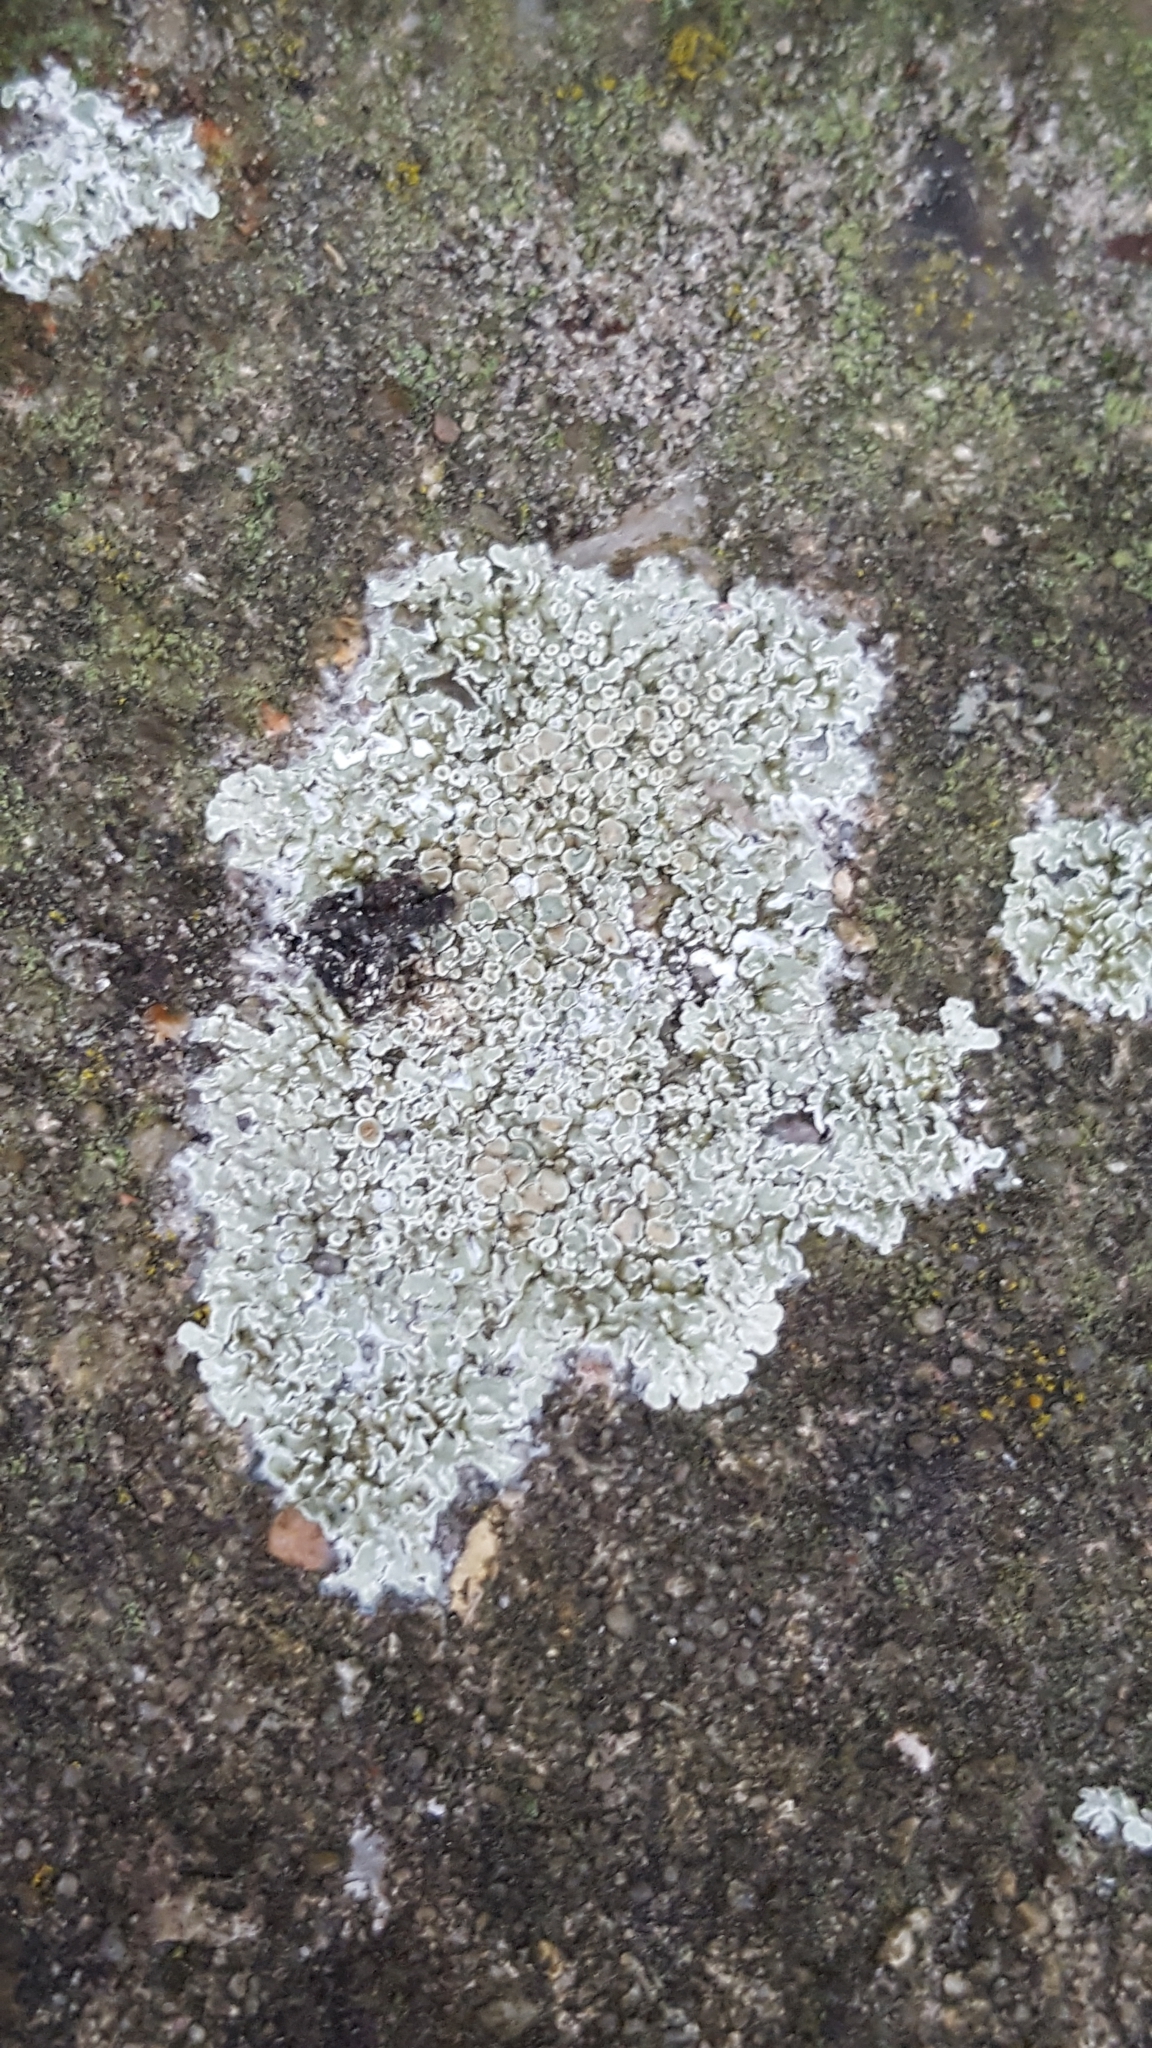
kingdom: Fungi
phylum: Ascomycota
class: Lecanoromycetes
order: Lecanorales
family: Lecanoraceae
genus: Protoparmeliopsis
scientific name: Protoparmeliopsis muralis
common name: Stonewall rim lichen
